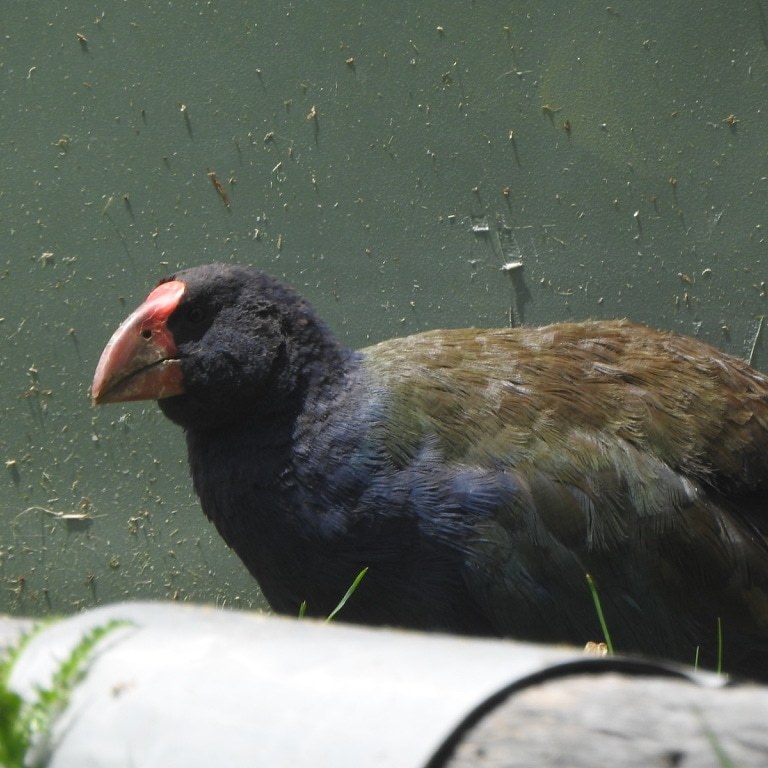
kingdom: Animalia
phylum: Chordata
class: Aves
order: Gruiformes
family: Rallidae
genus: Porphyrio
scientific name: Porphyrio hochstetteri
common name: South island takahe
